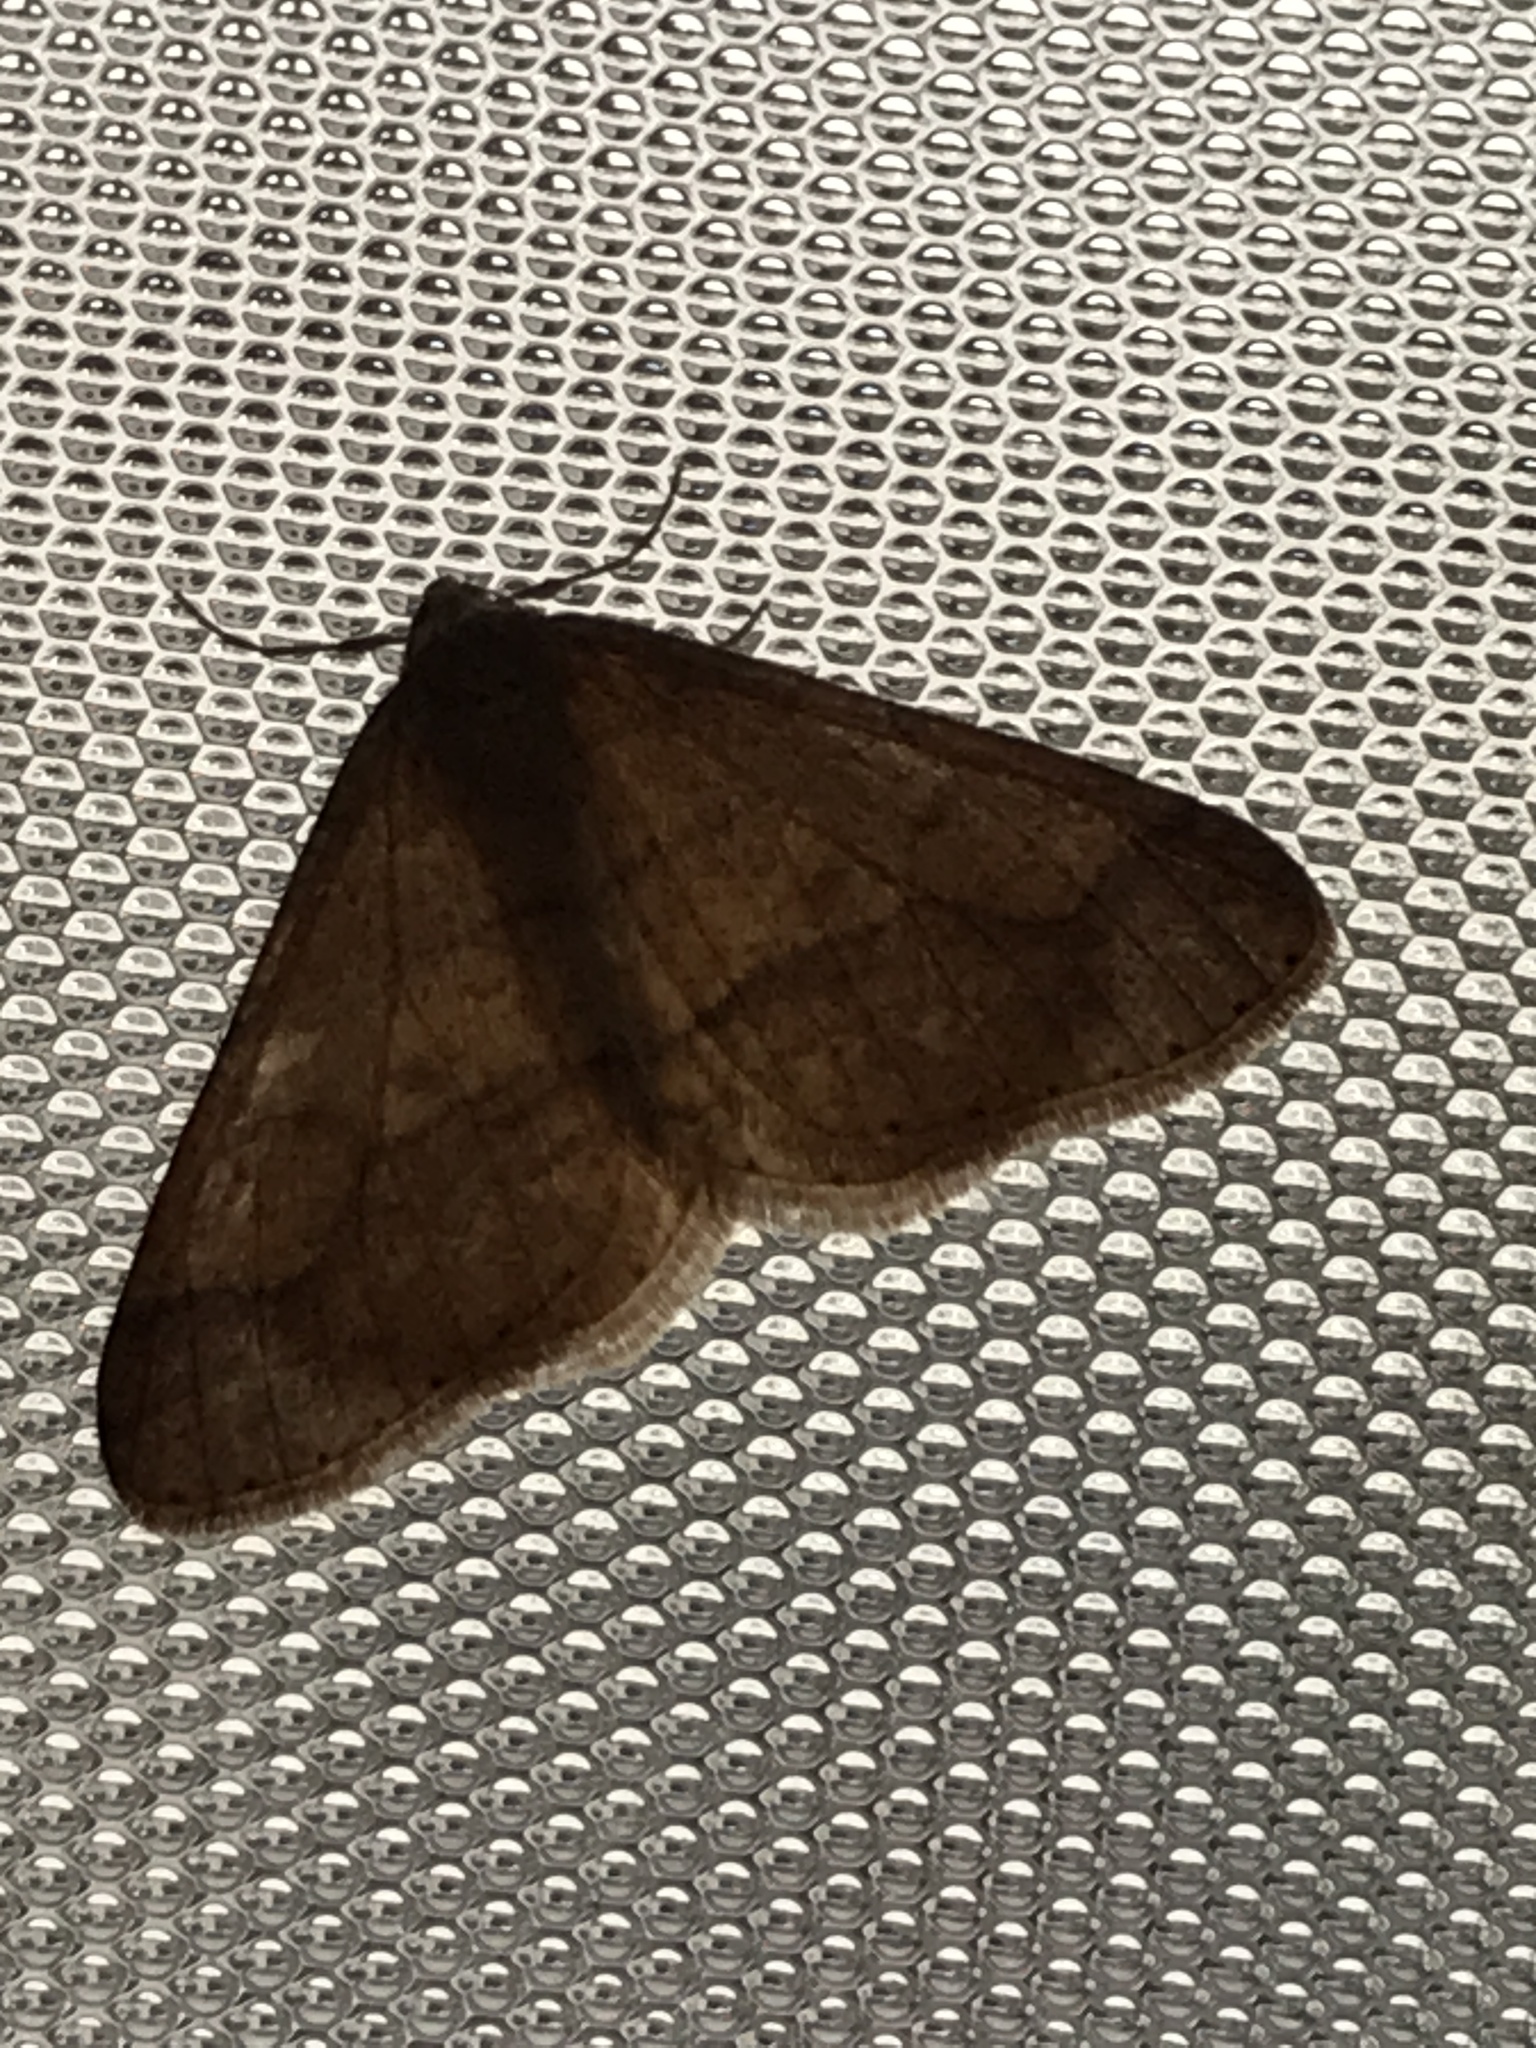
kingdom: Animalia
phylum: Arthropoda
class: Insecta
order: Lepidoptera
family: Geometridae
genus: Agriopis
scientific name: Agriopis marginaria
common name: Dotted border
